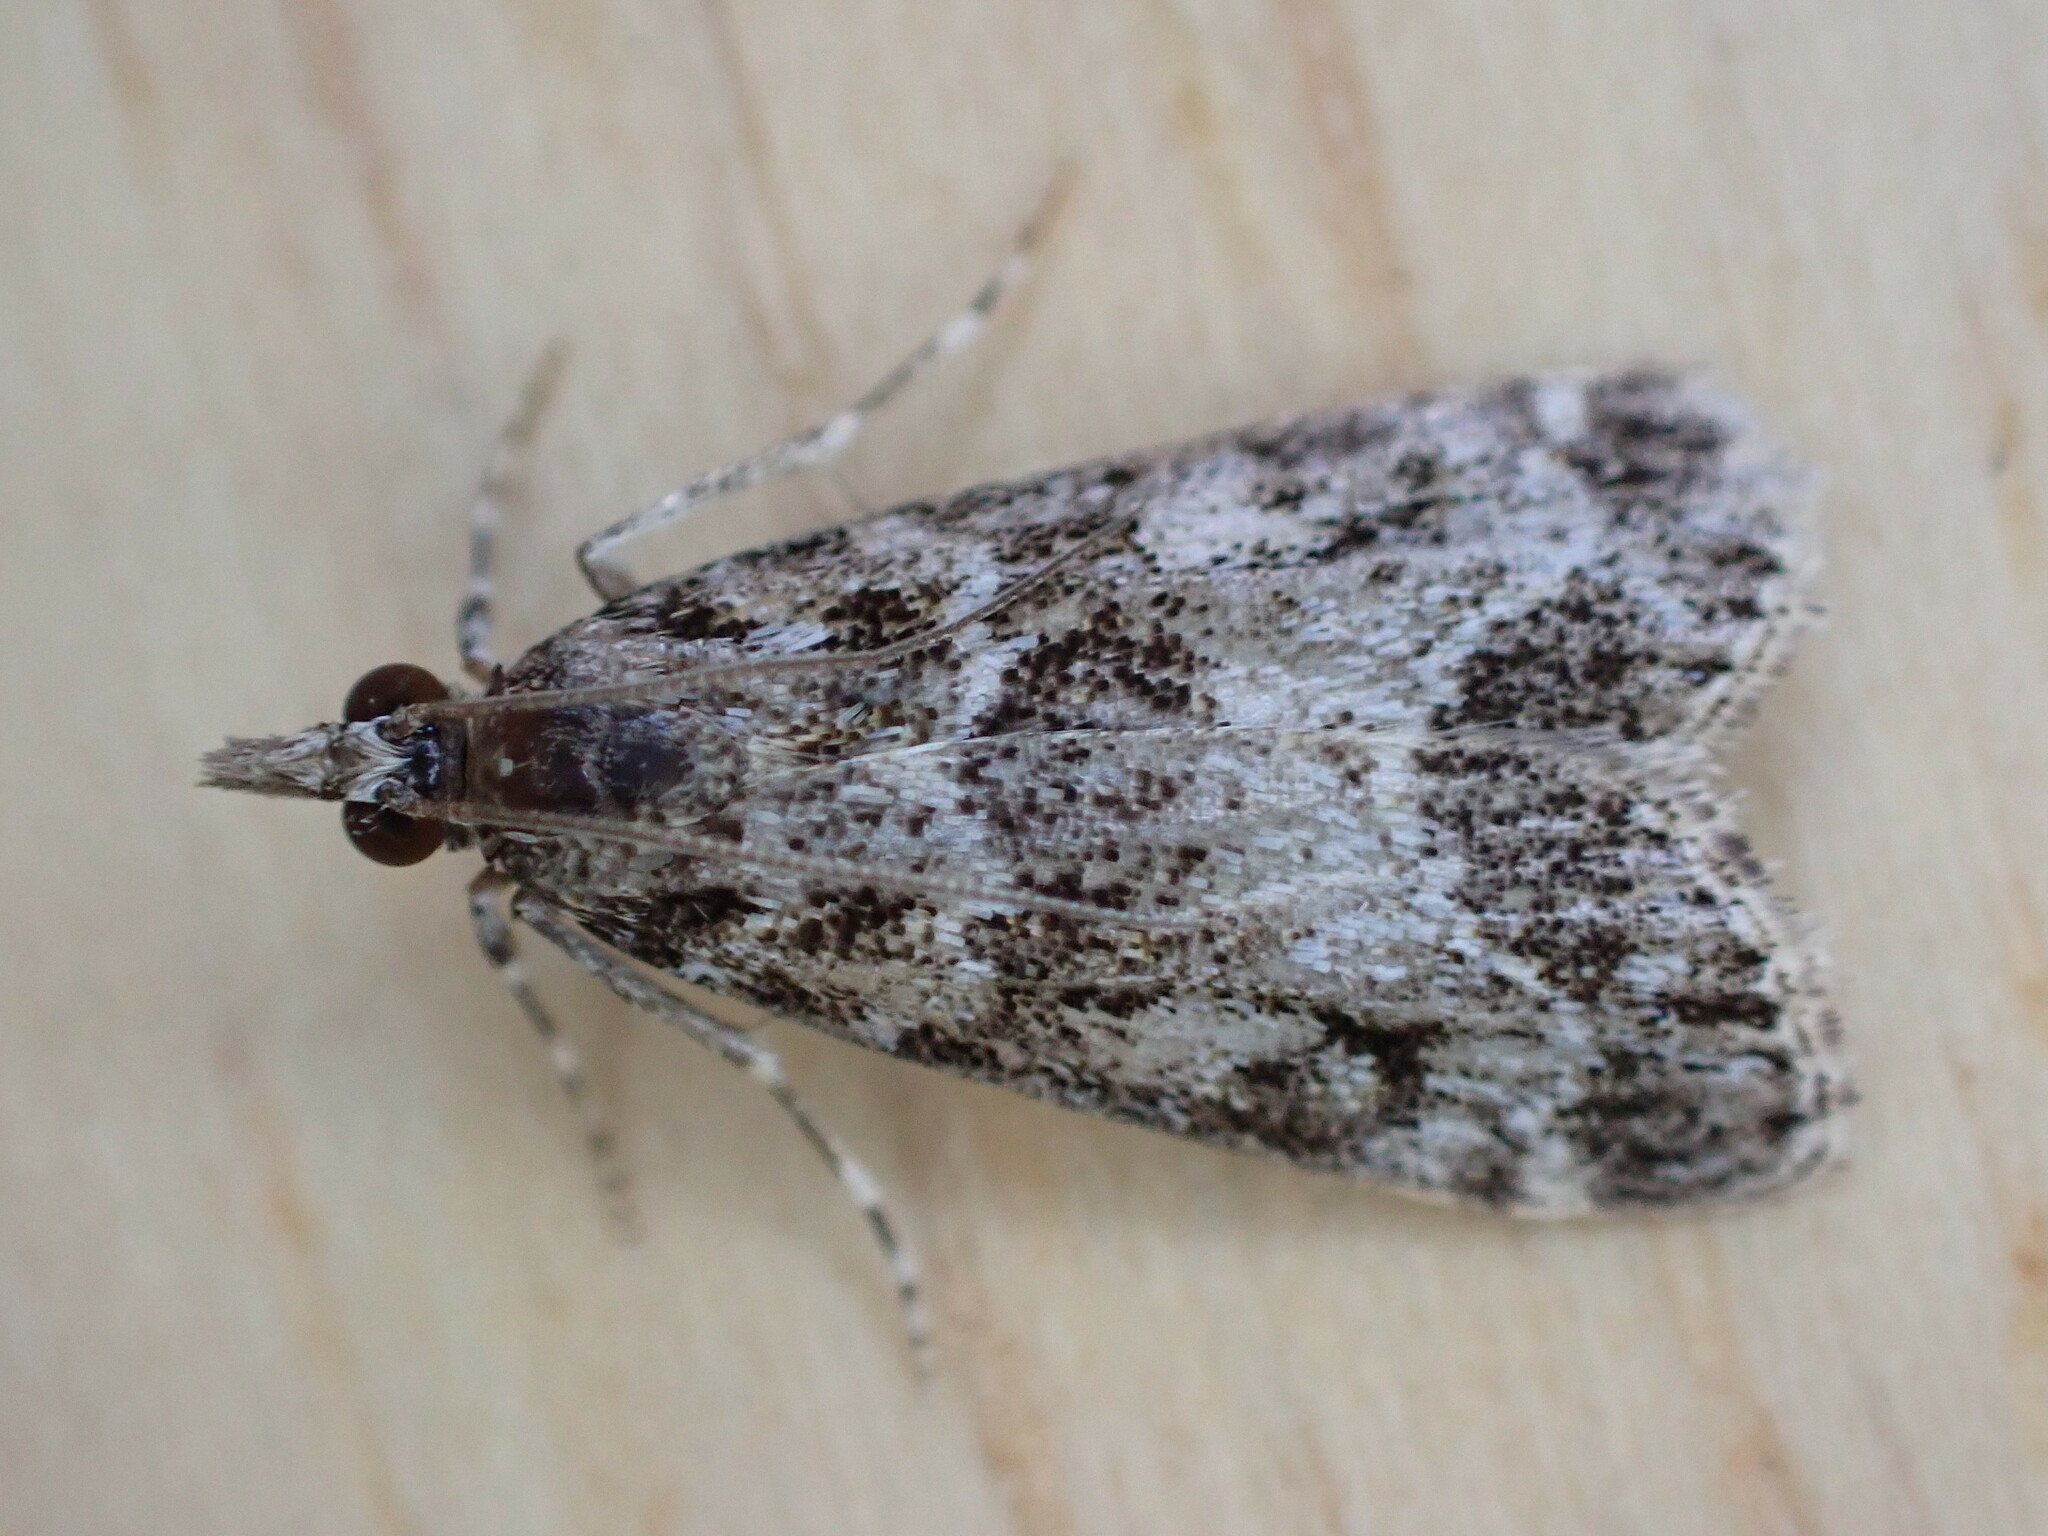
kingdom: Animalia
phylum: Arthropoda
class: Insecta
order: Lepidoptera
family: Crambidae
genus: Eudonia
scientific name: Eudonia mercurella
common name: Small grey
